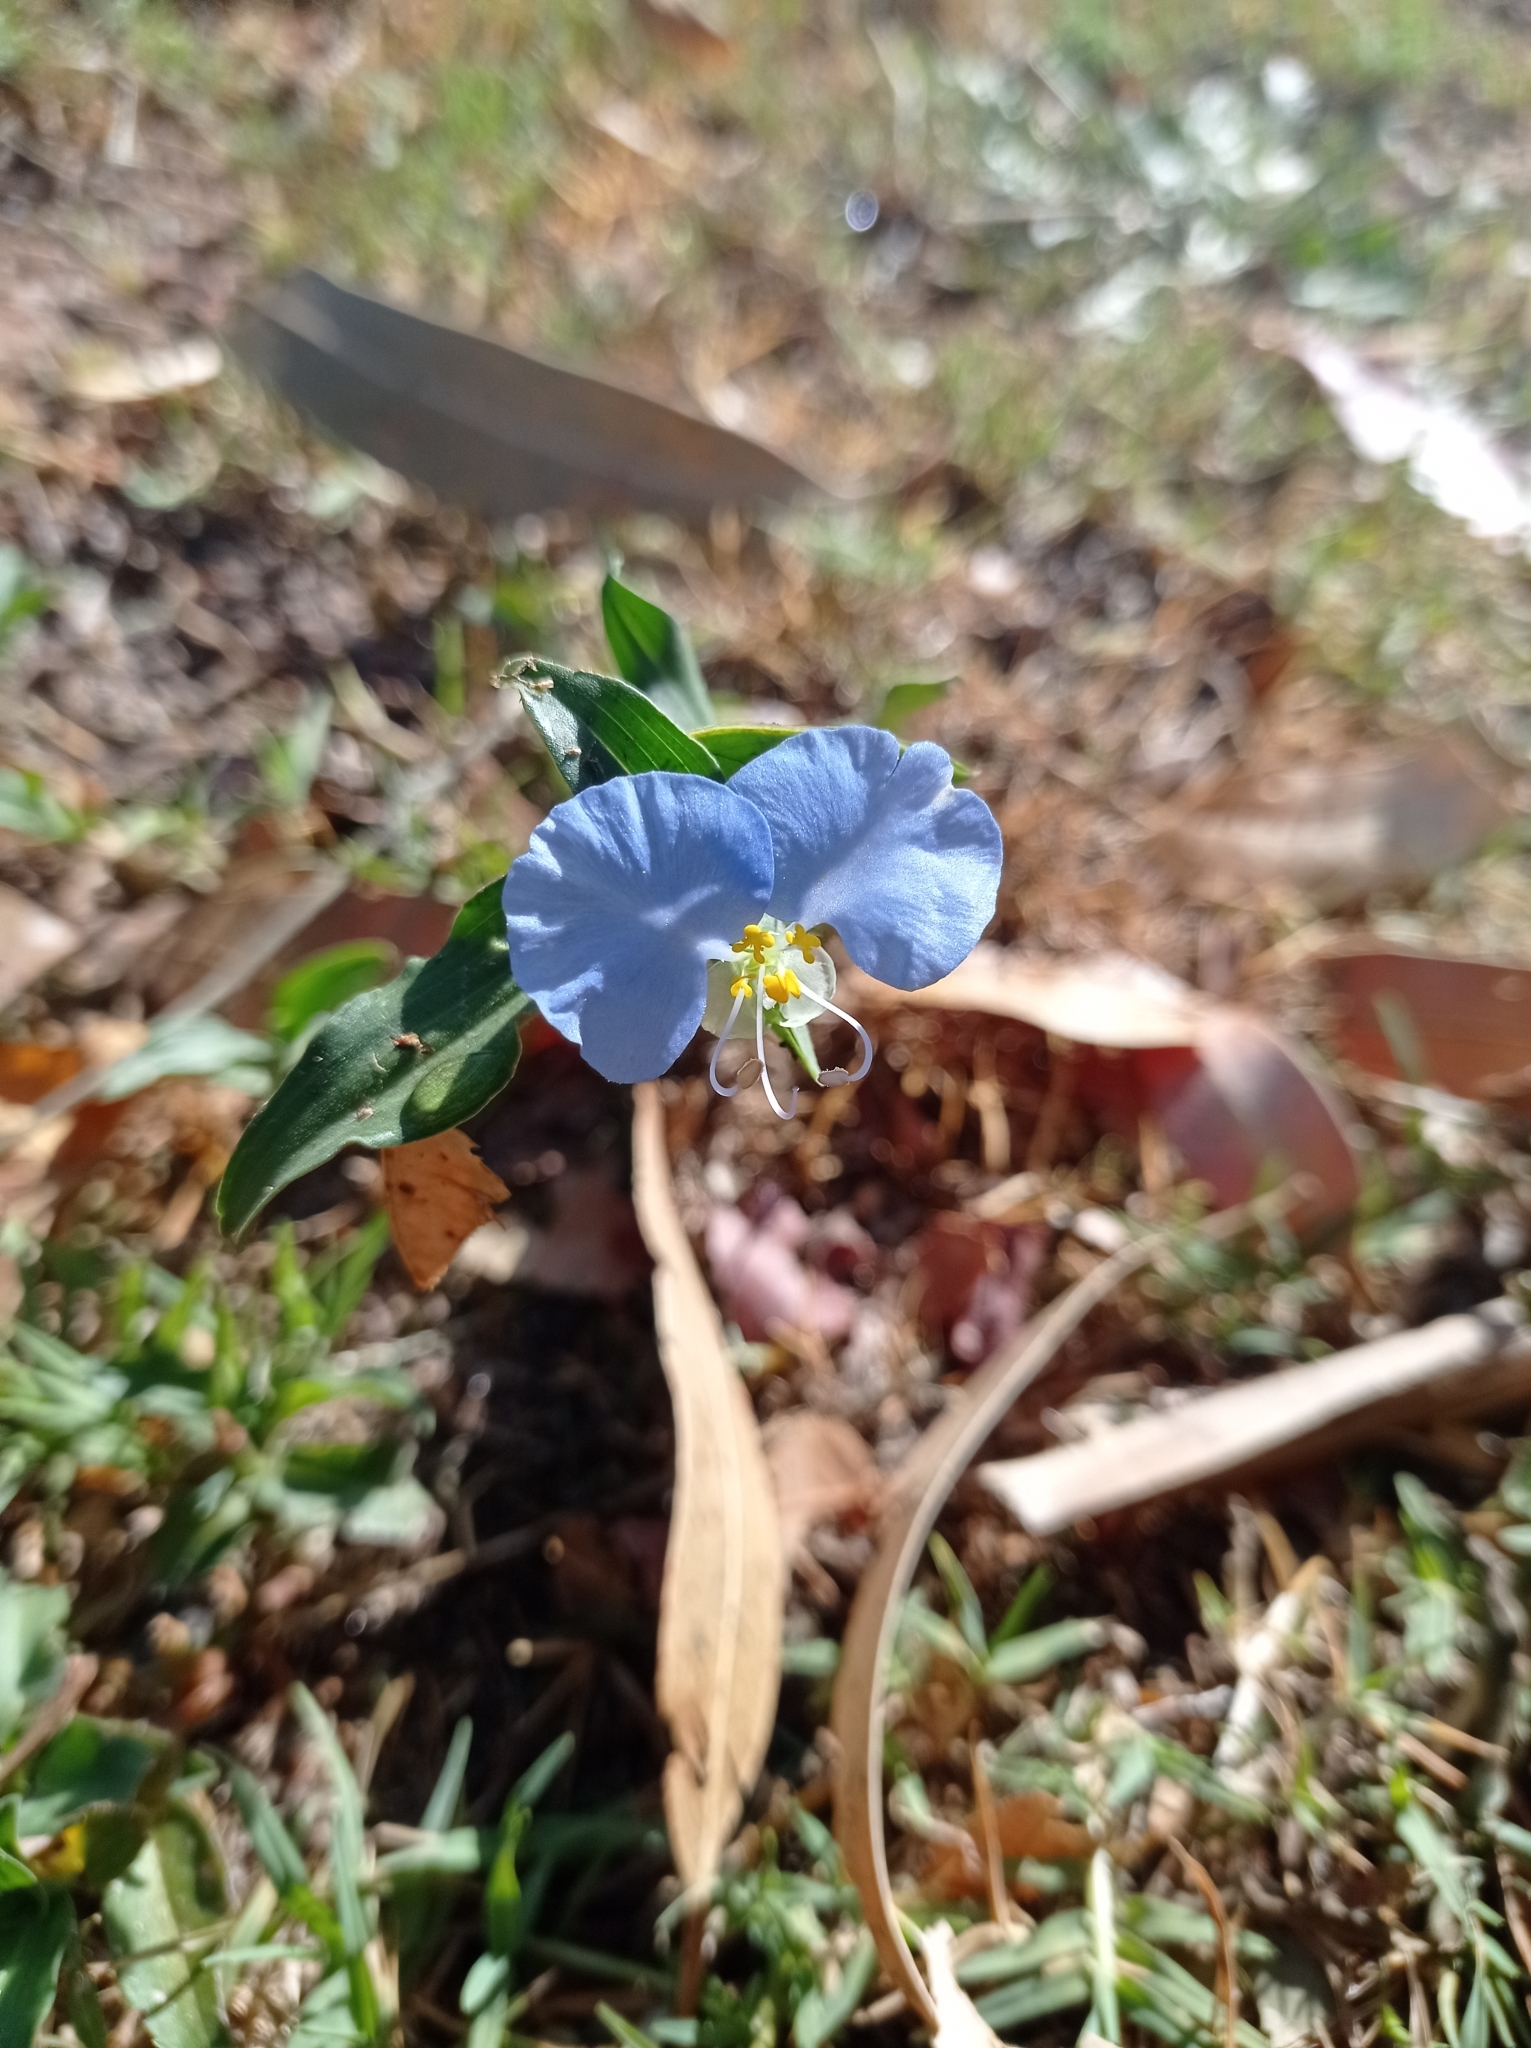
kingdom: Plantae
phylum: Tracheophyta
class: Liliopsida
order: Commelinales
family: Commelinaceae
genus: Commelina
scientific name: Commelina erecta
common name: Blousel blommetjie
